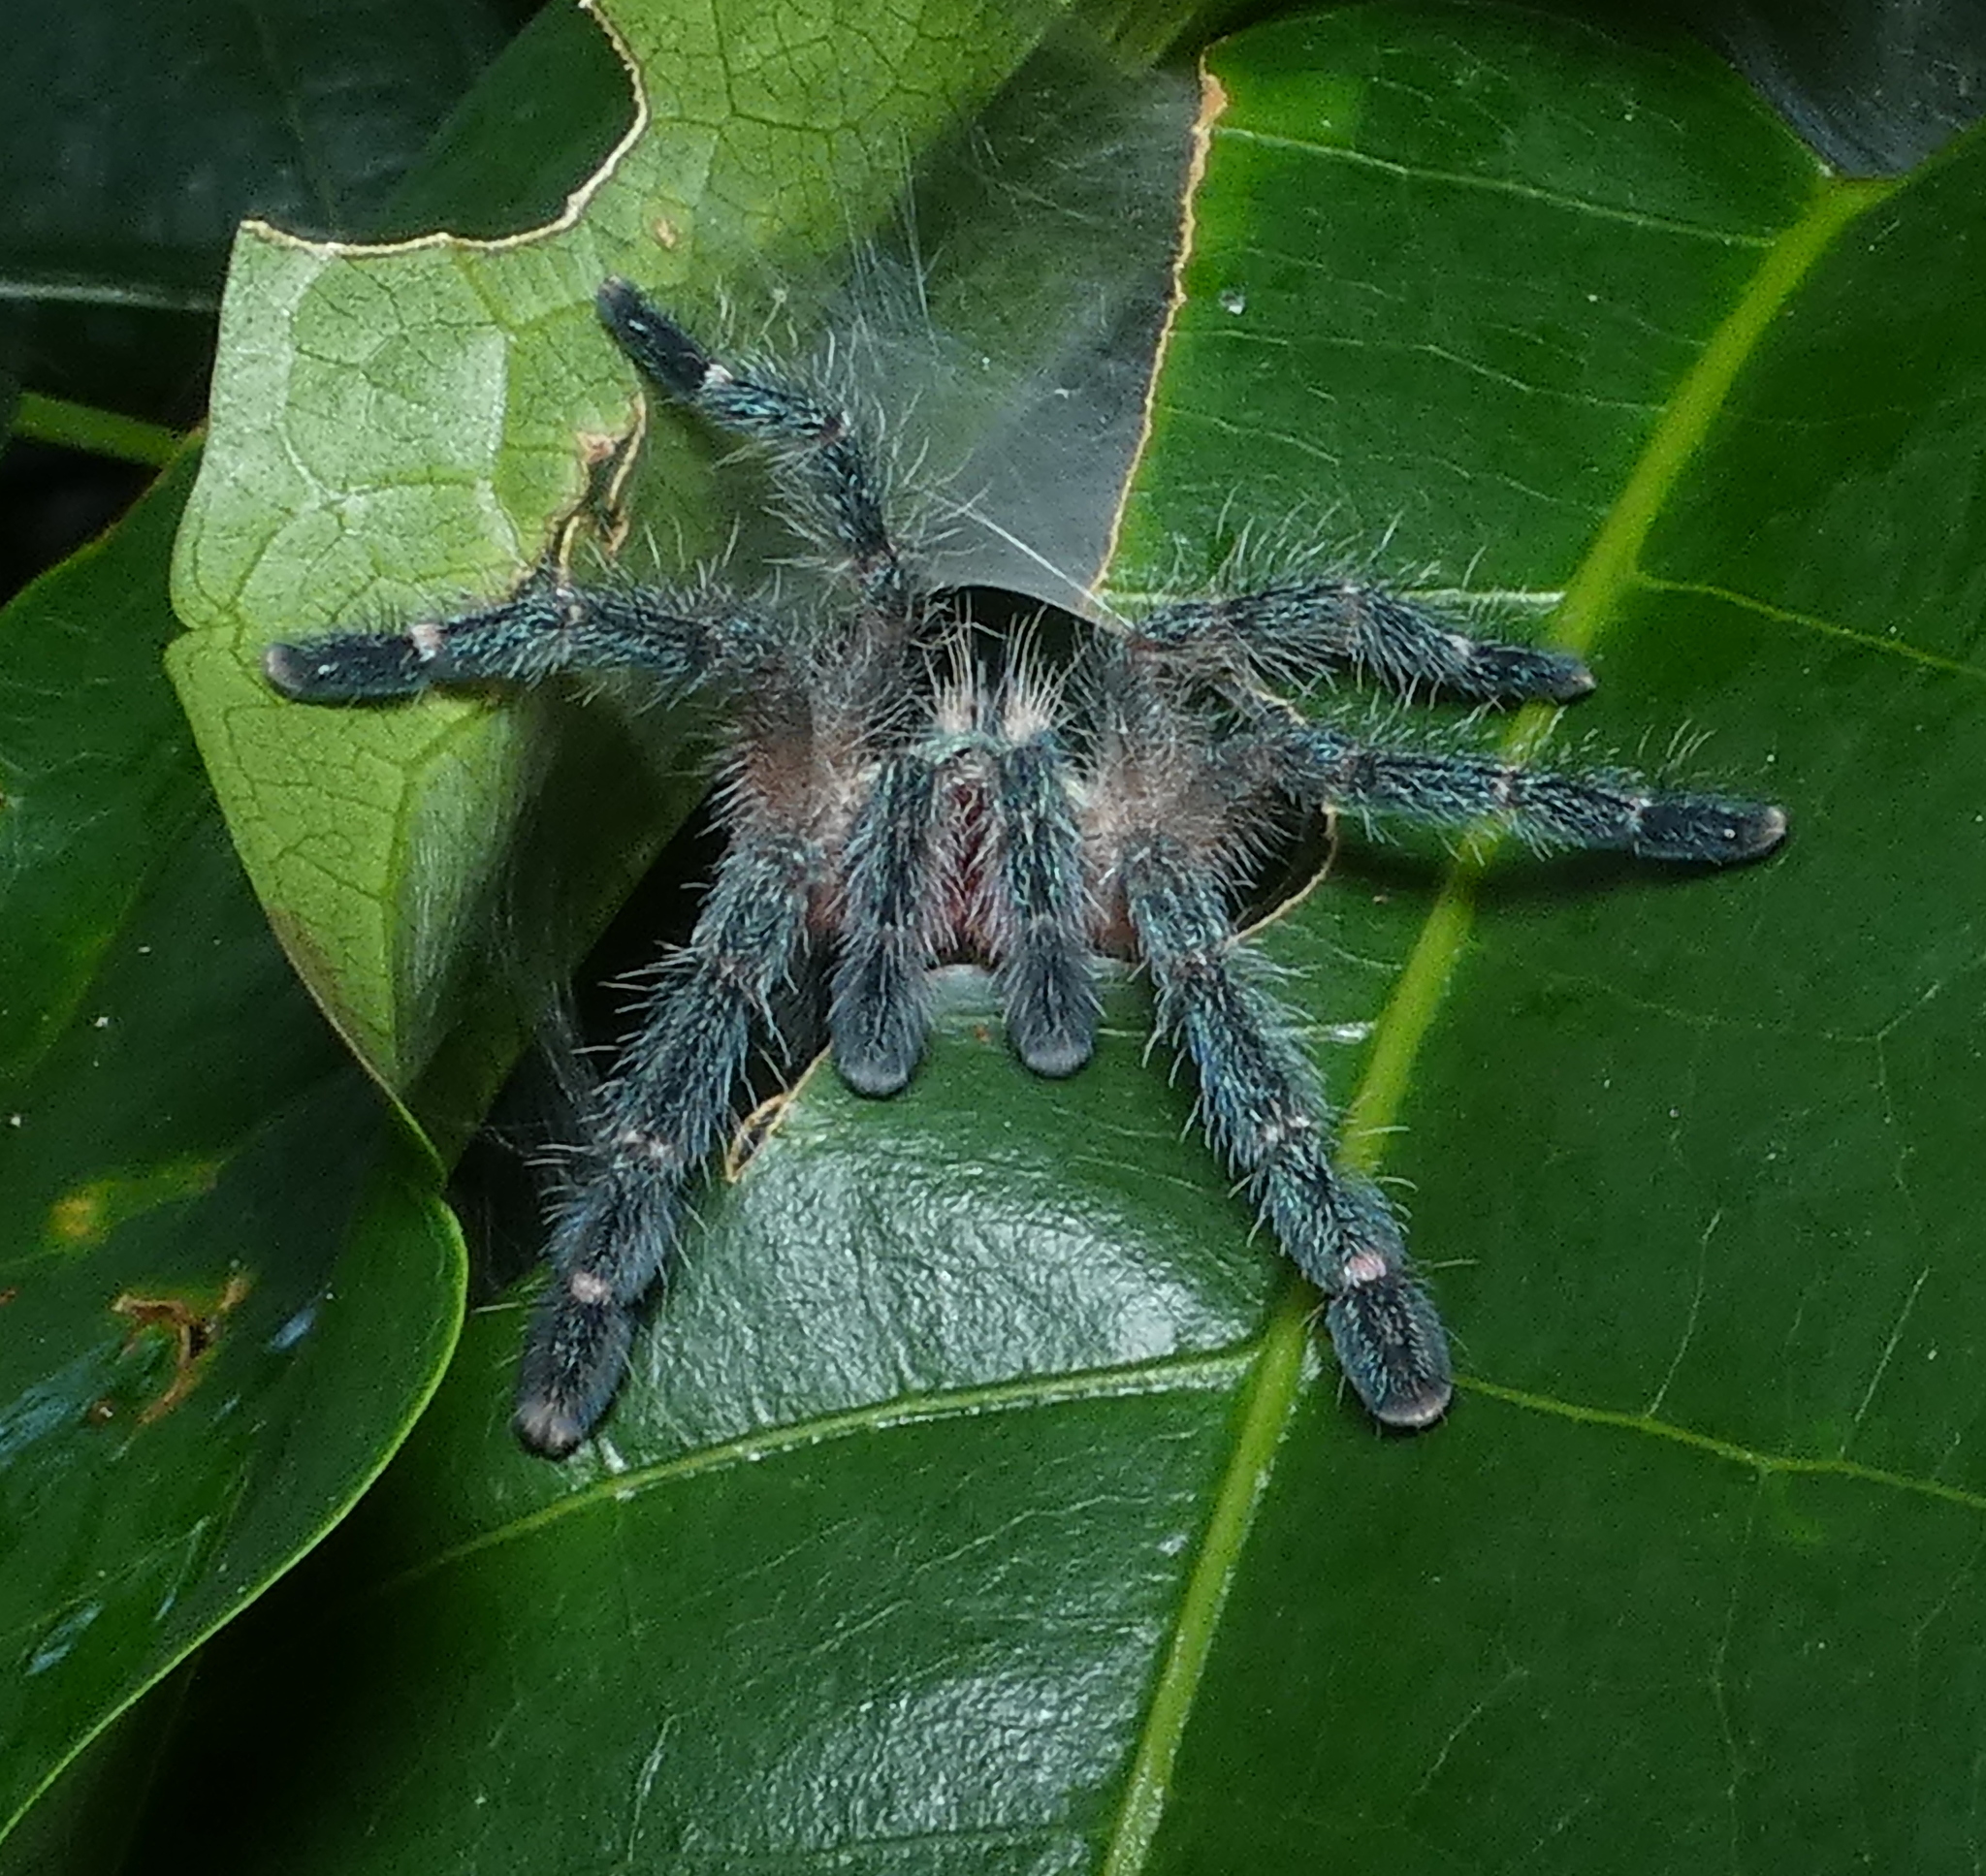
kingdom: Animalia
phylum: Arthropoda
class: Arachnida
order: Araneae
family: Theraphosidae
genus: Iridopelma
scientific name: Iridopelma hirsutum
